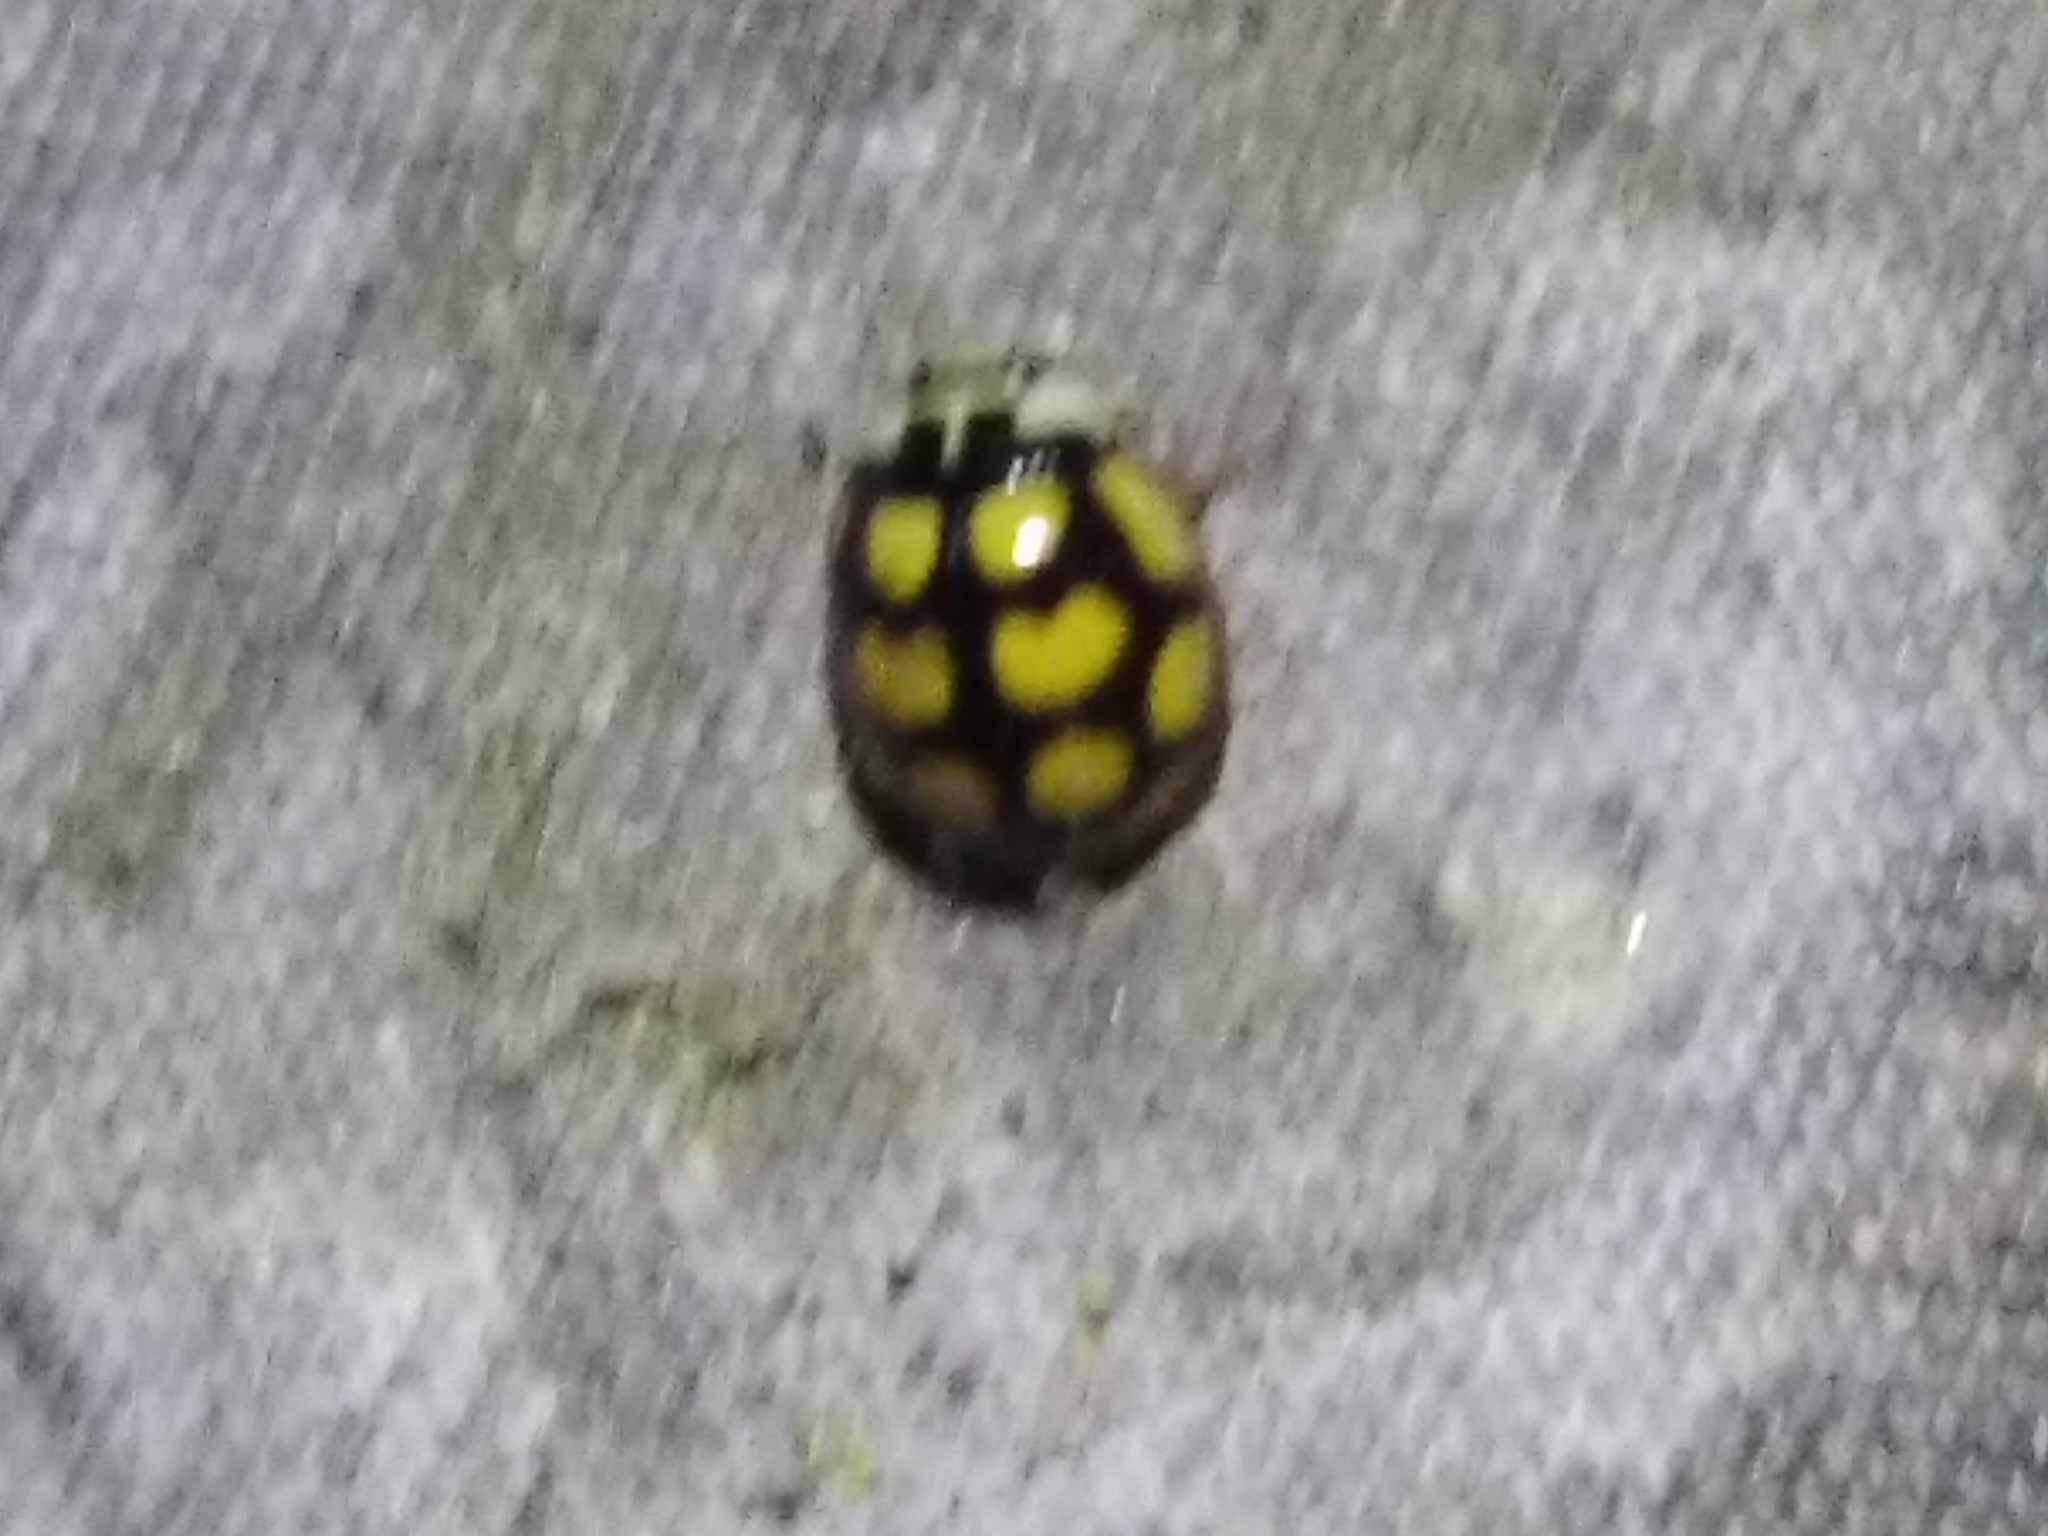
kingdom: Animalia
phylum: Arthropoda
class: Insecta
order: Coleoptera
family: Coccinellidae
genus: Oenopia
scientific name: Oenopia lyncea
